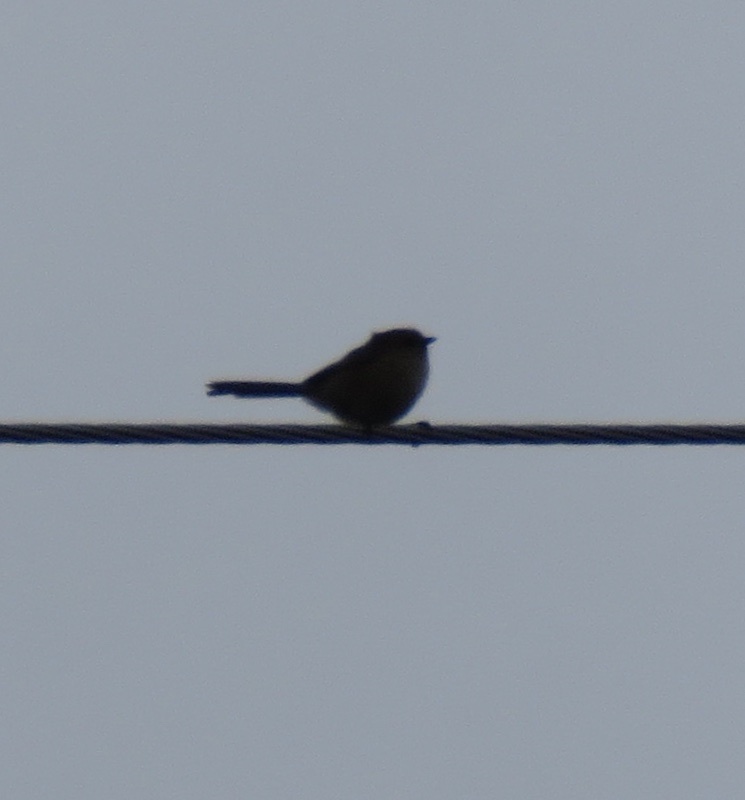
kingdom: Animalia
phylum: Chordata
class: Aves
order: Passeriformes
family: Aegithalidae
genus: Psaltriparus
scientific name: Psaltriparus minimus
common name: American bushtit
